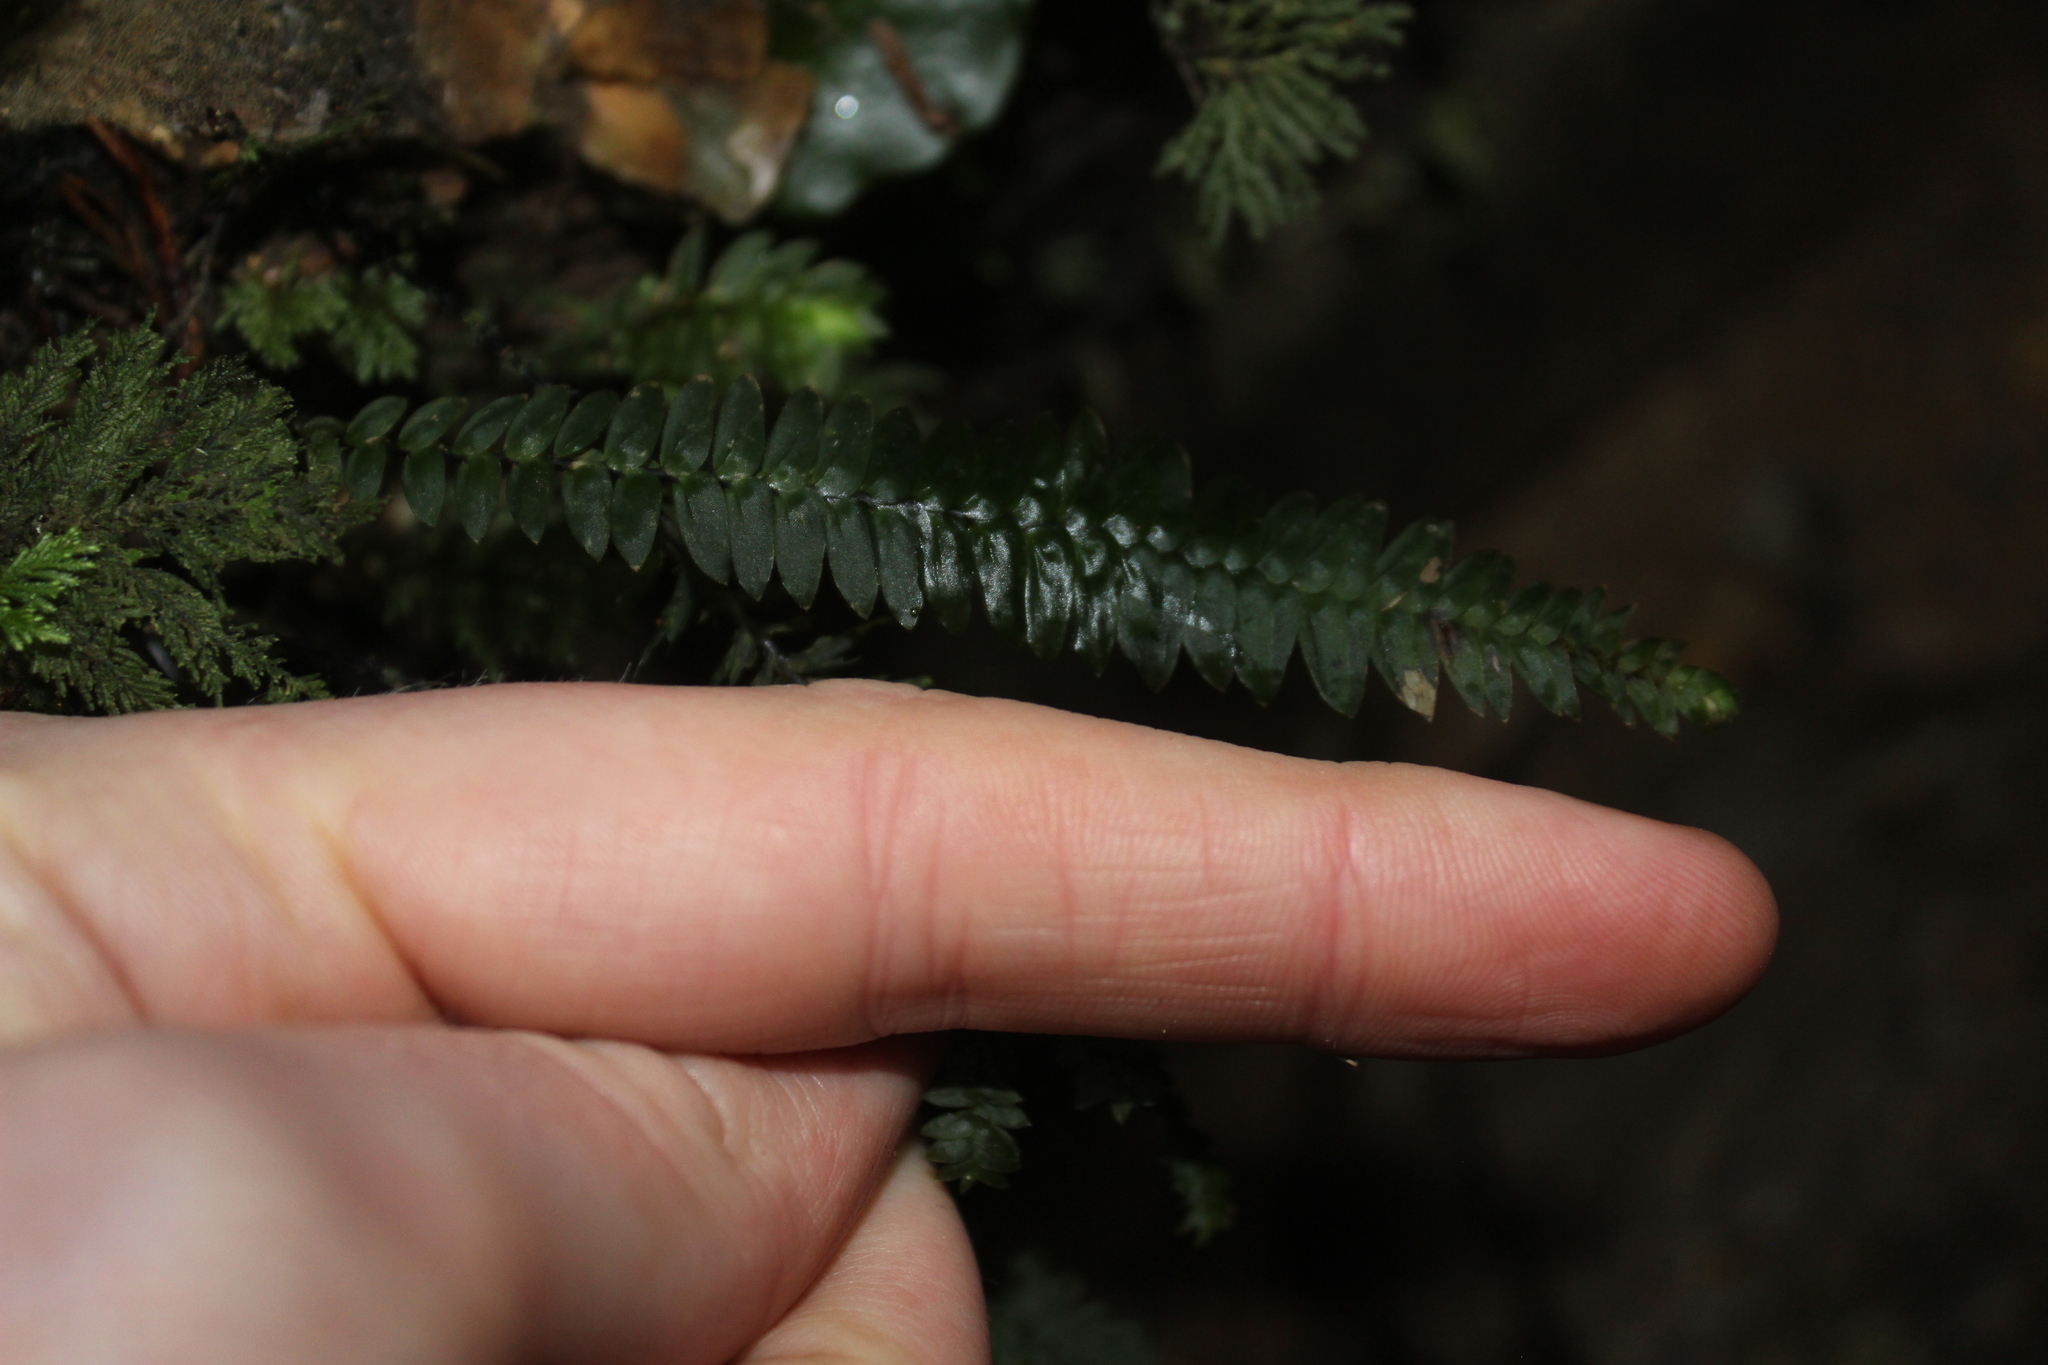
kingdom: Plantae
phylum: Bryophyta
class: Bryopsida
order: Hypopterygiales
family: Hypopterygiaceae
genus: Cyathophorum
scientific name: Cyathophorum bulbosum
